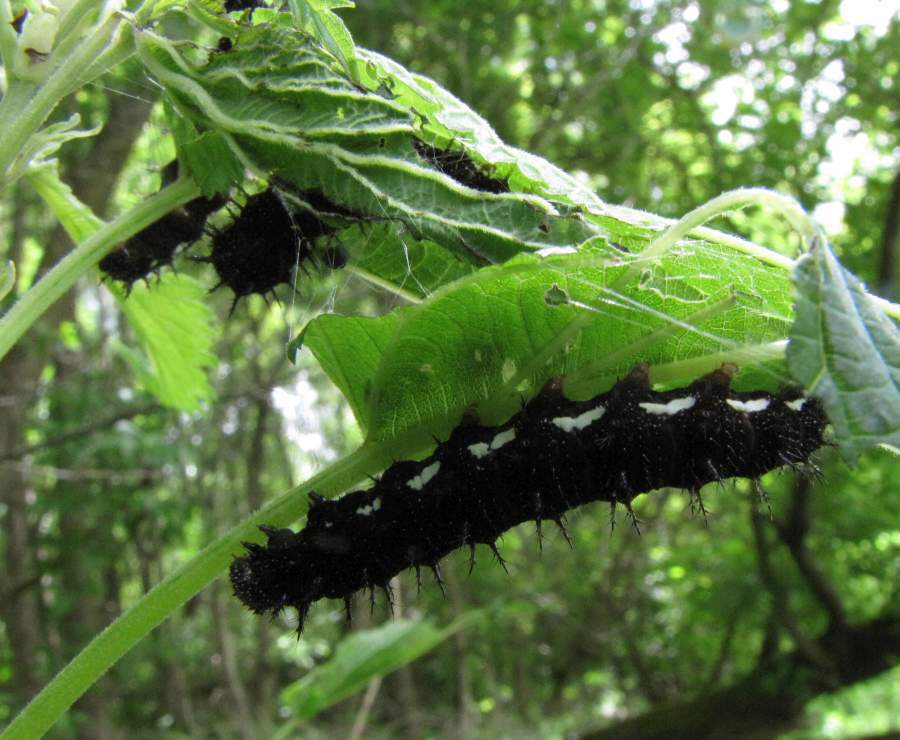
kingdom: Animalia
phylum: Arthropoda
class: Insecta
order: Lepidoptera
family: Nymphalidae
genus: Vanessa
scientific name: Vanessa atalanta
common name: Red admiral
